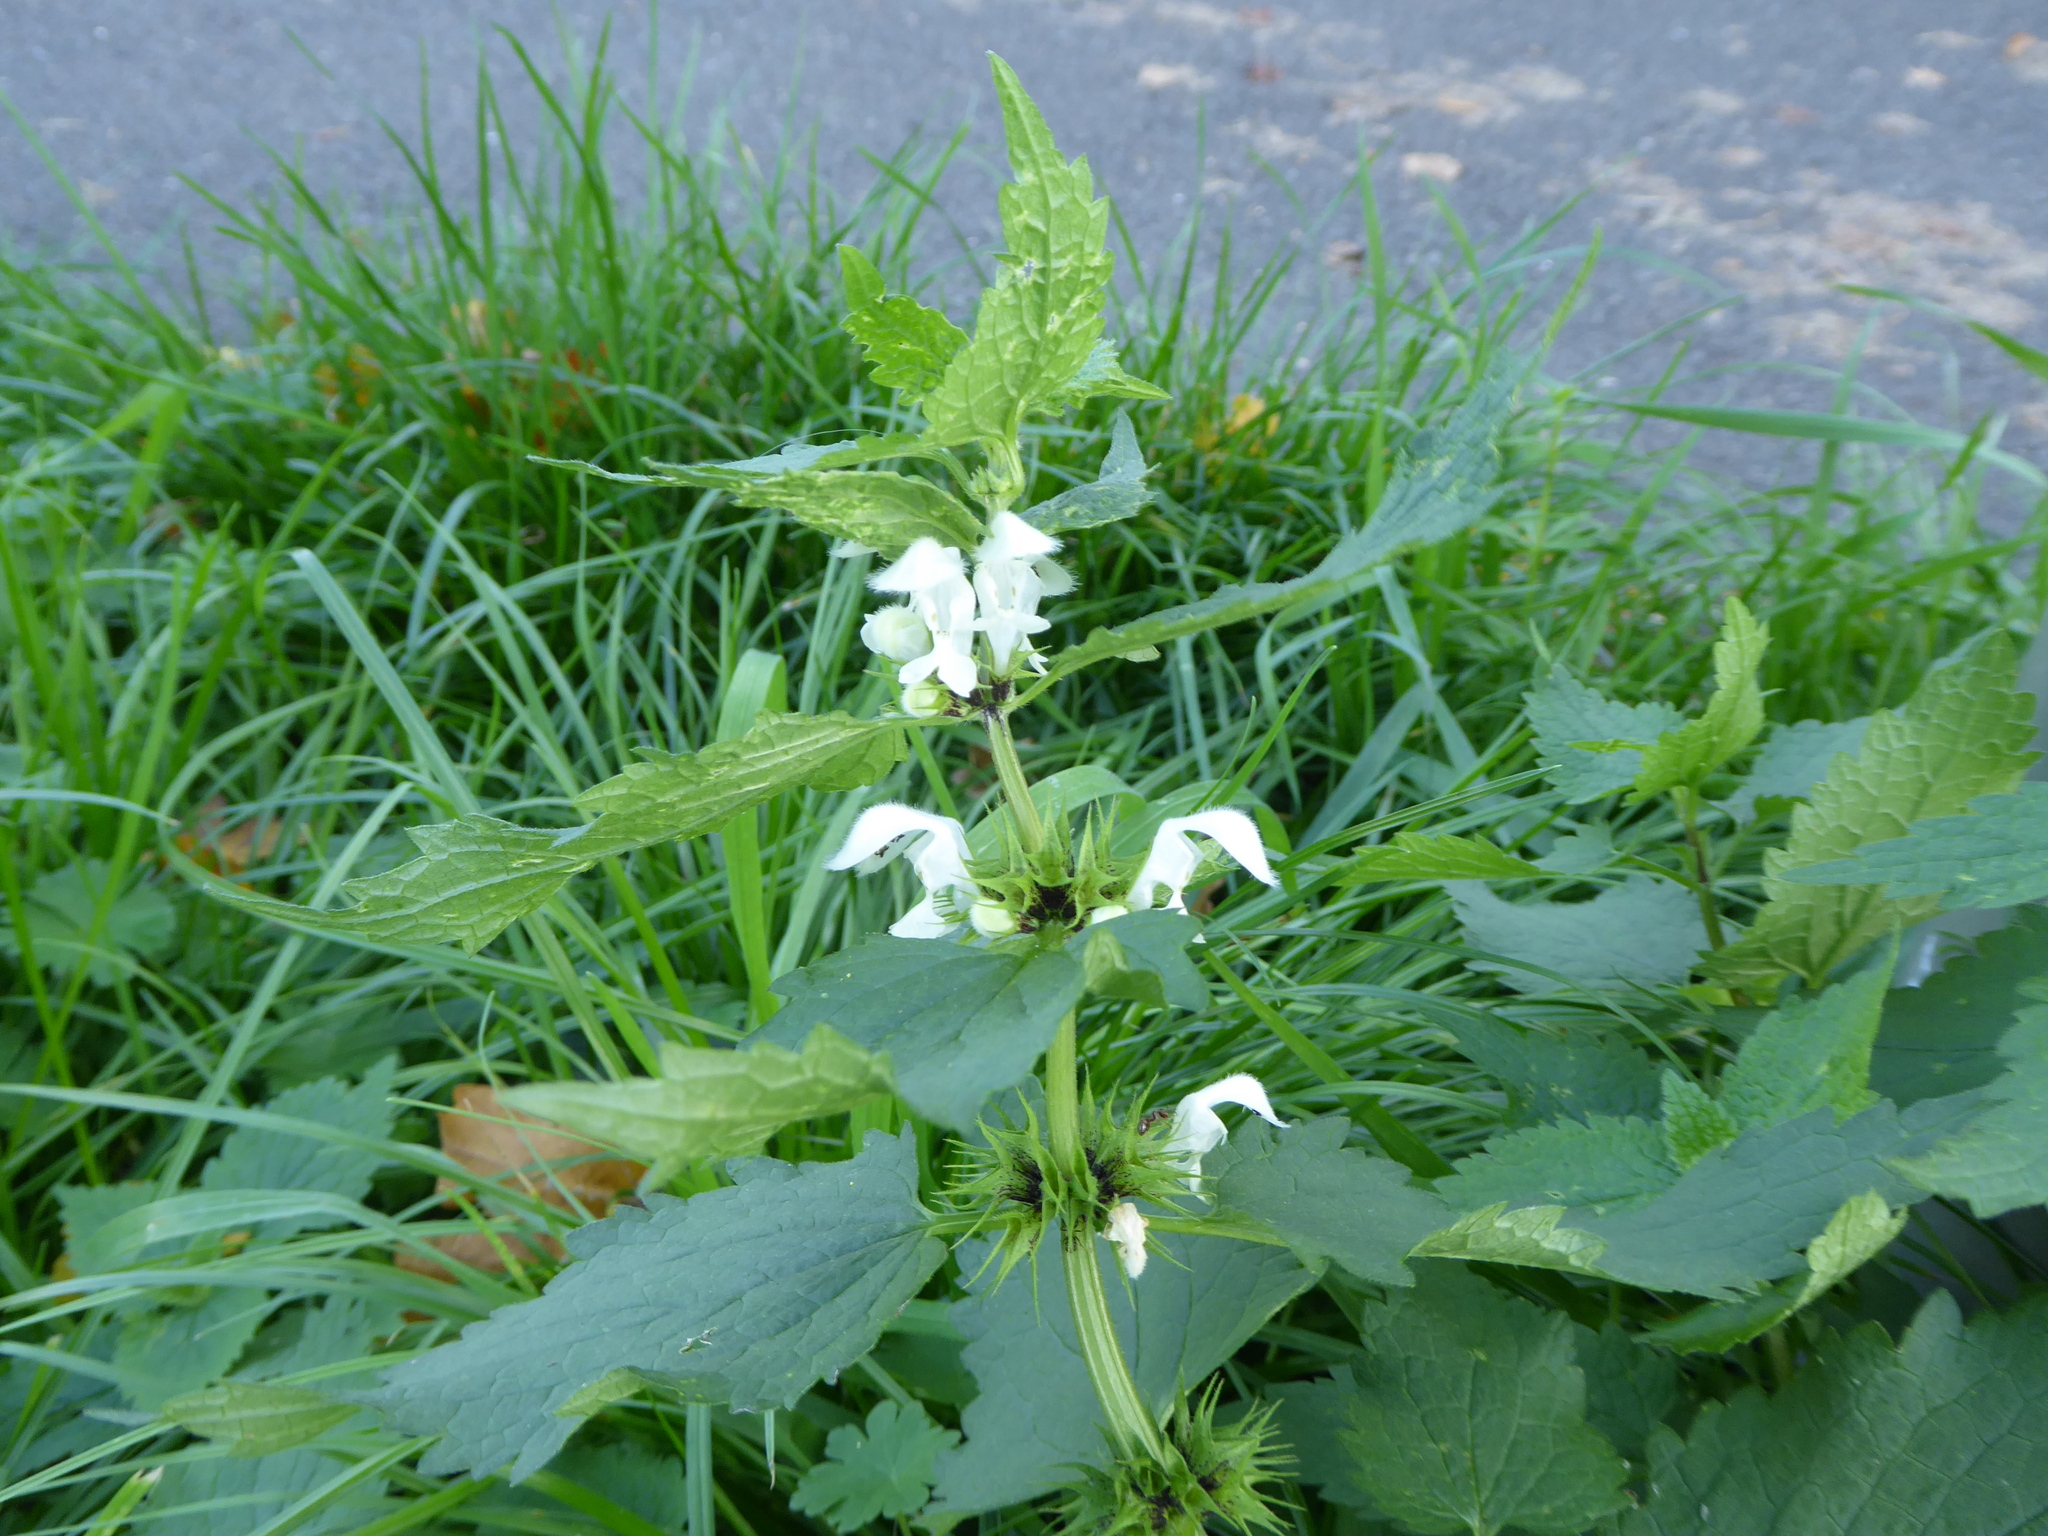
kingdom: Plantae
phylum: Tracheophyta
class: Magnoliopsida
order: Lamiales
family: Lamiaceae
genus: Lamium
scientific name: Lamium album
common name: White dead-nettle
